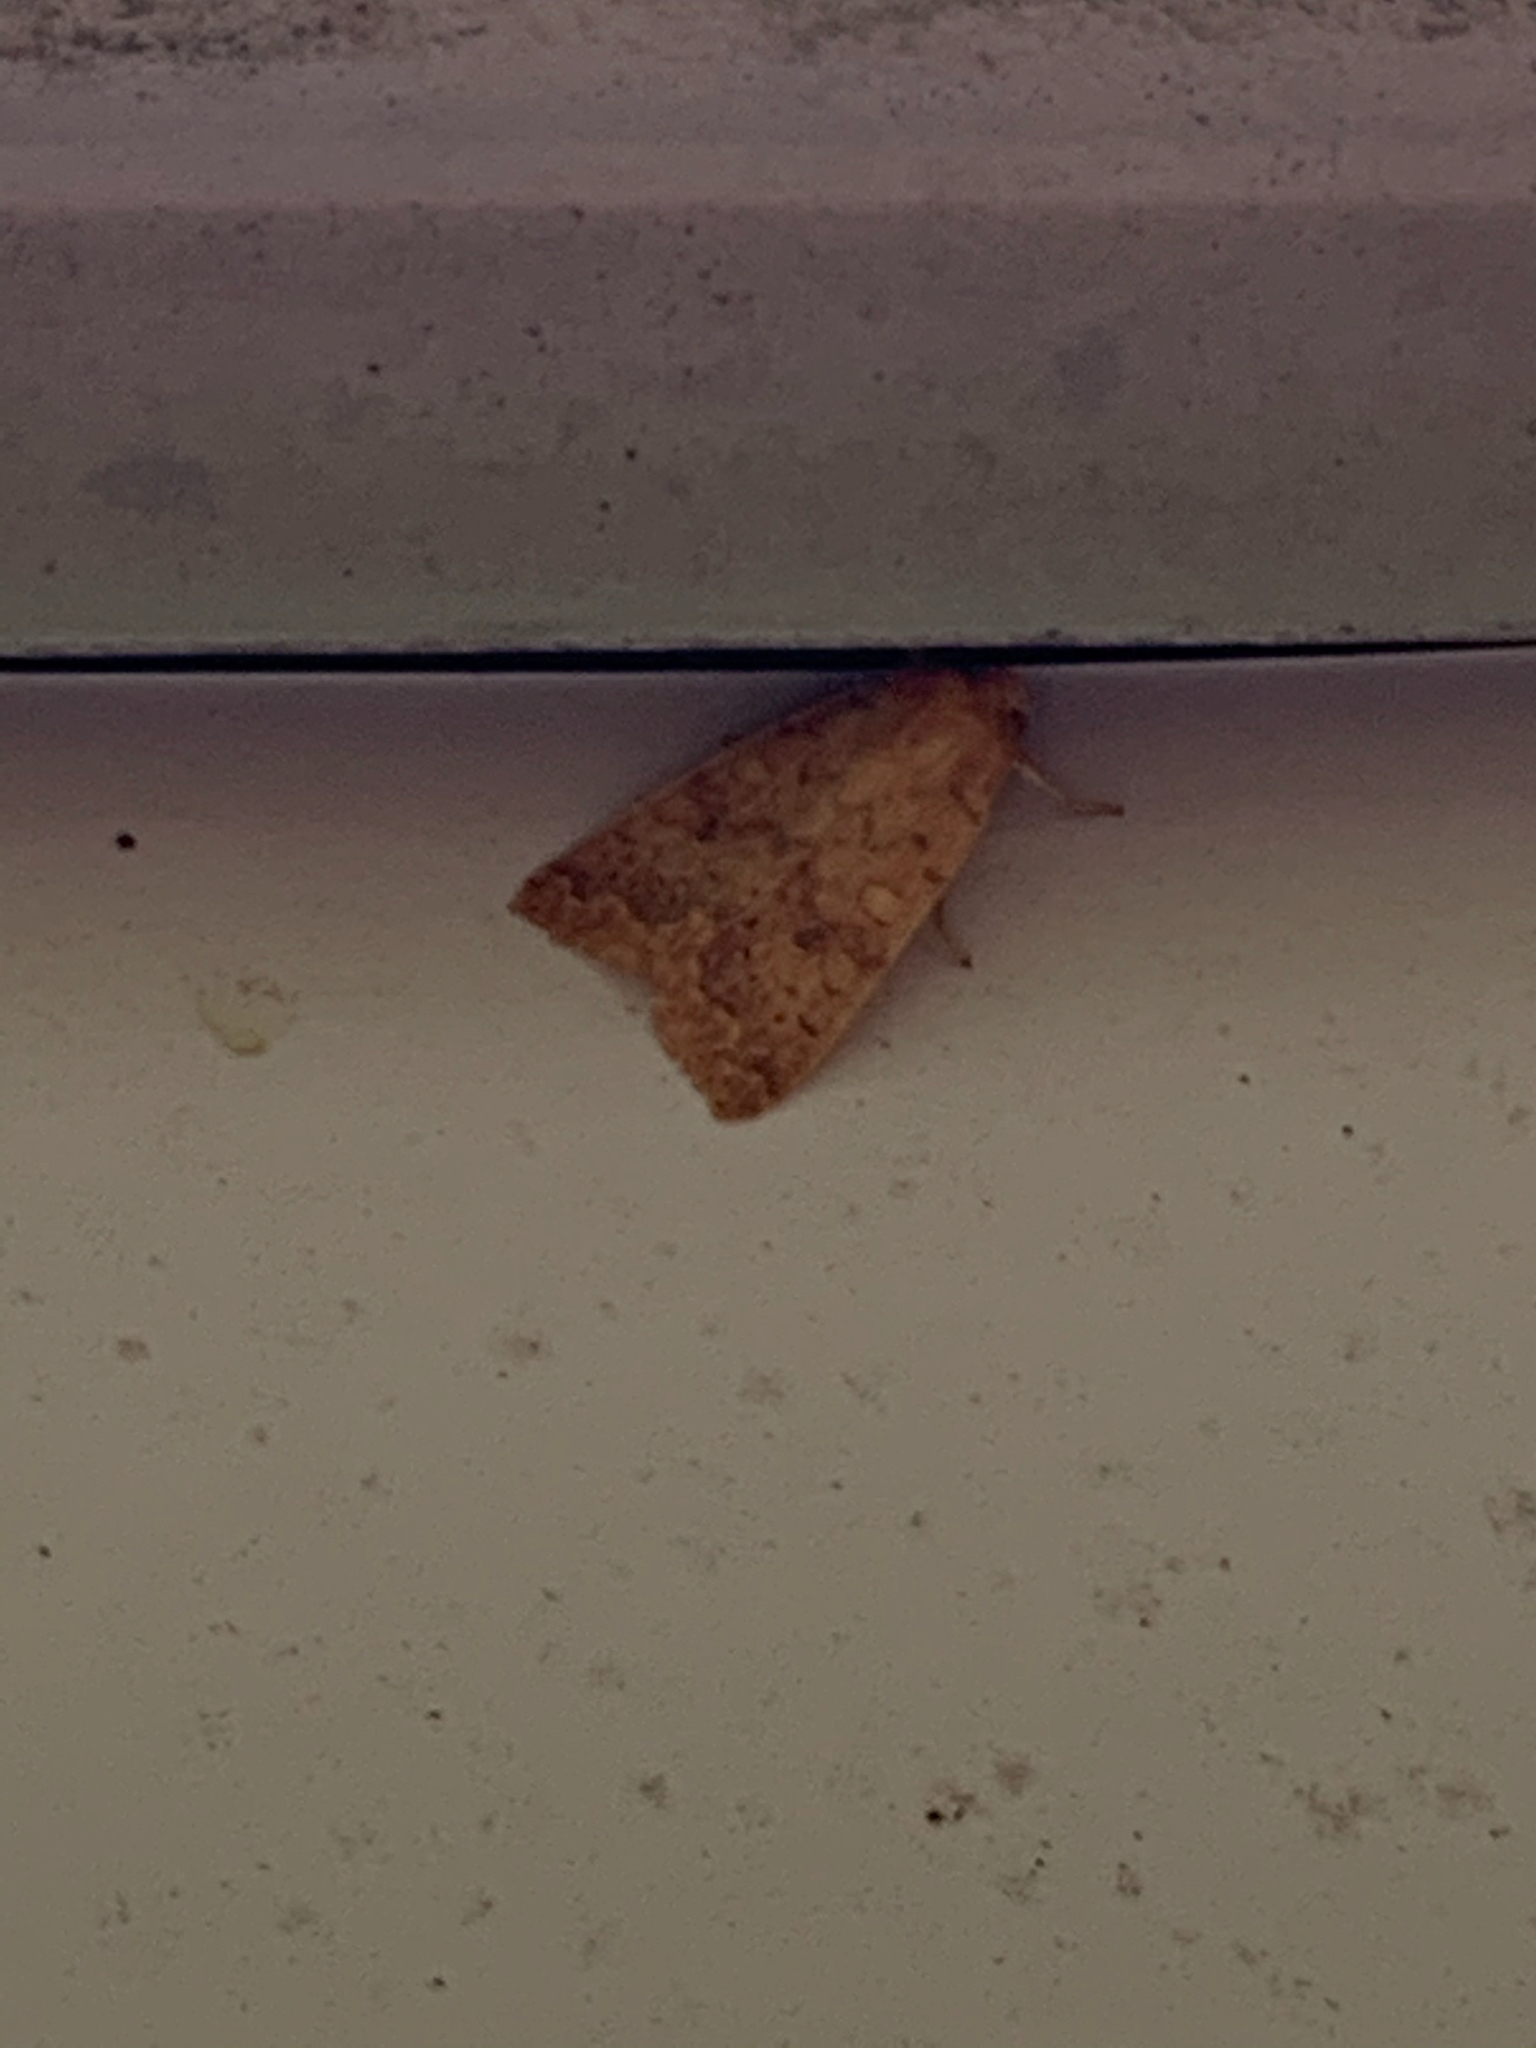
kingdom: Animalia
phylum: Arthropoda
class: Insecta
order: Lepidoptera
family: Noctuidae
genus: Agrochola
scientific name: Agrochola bicolorago
